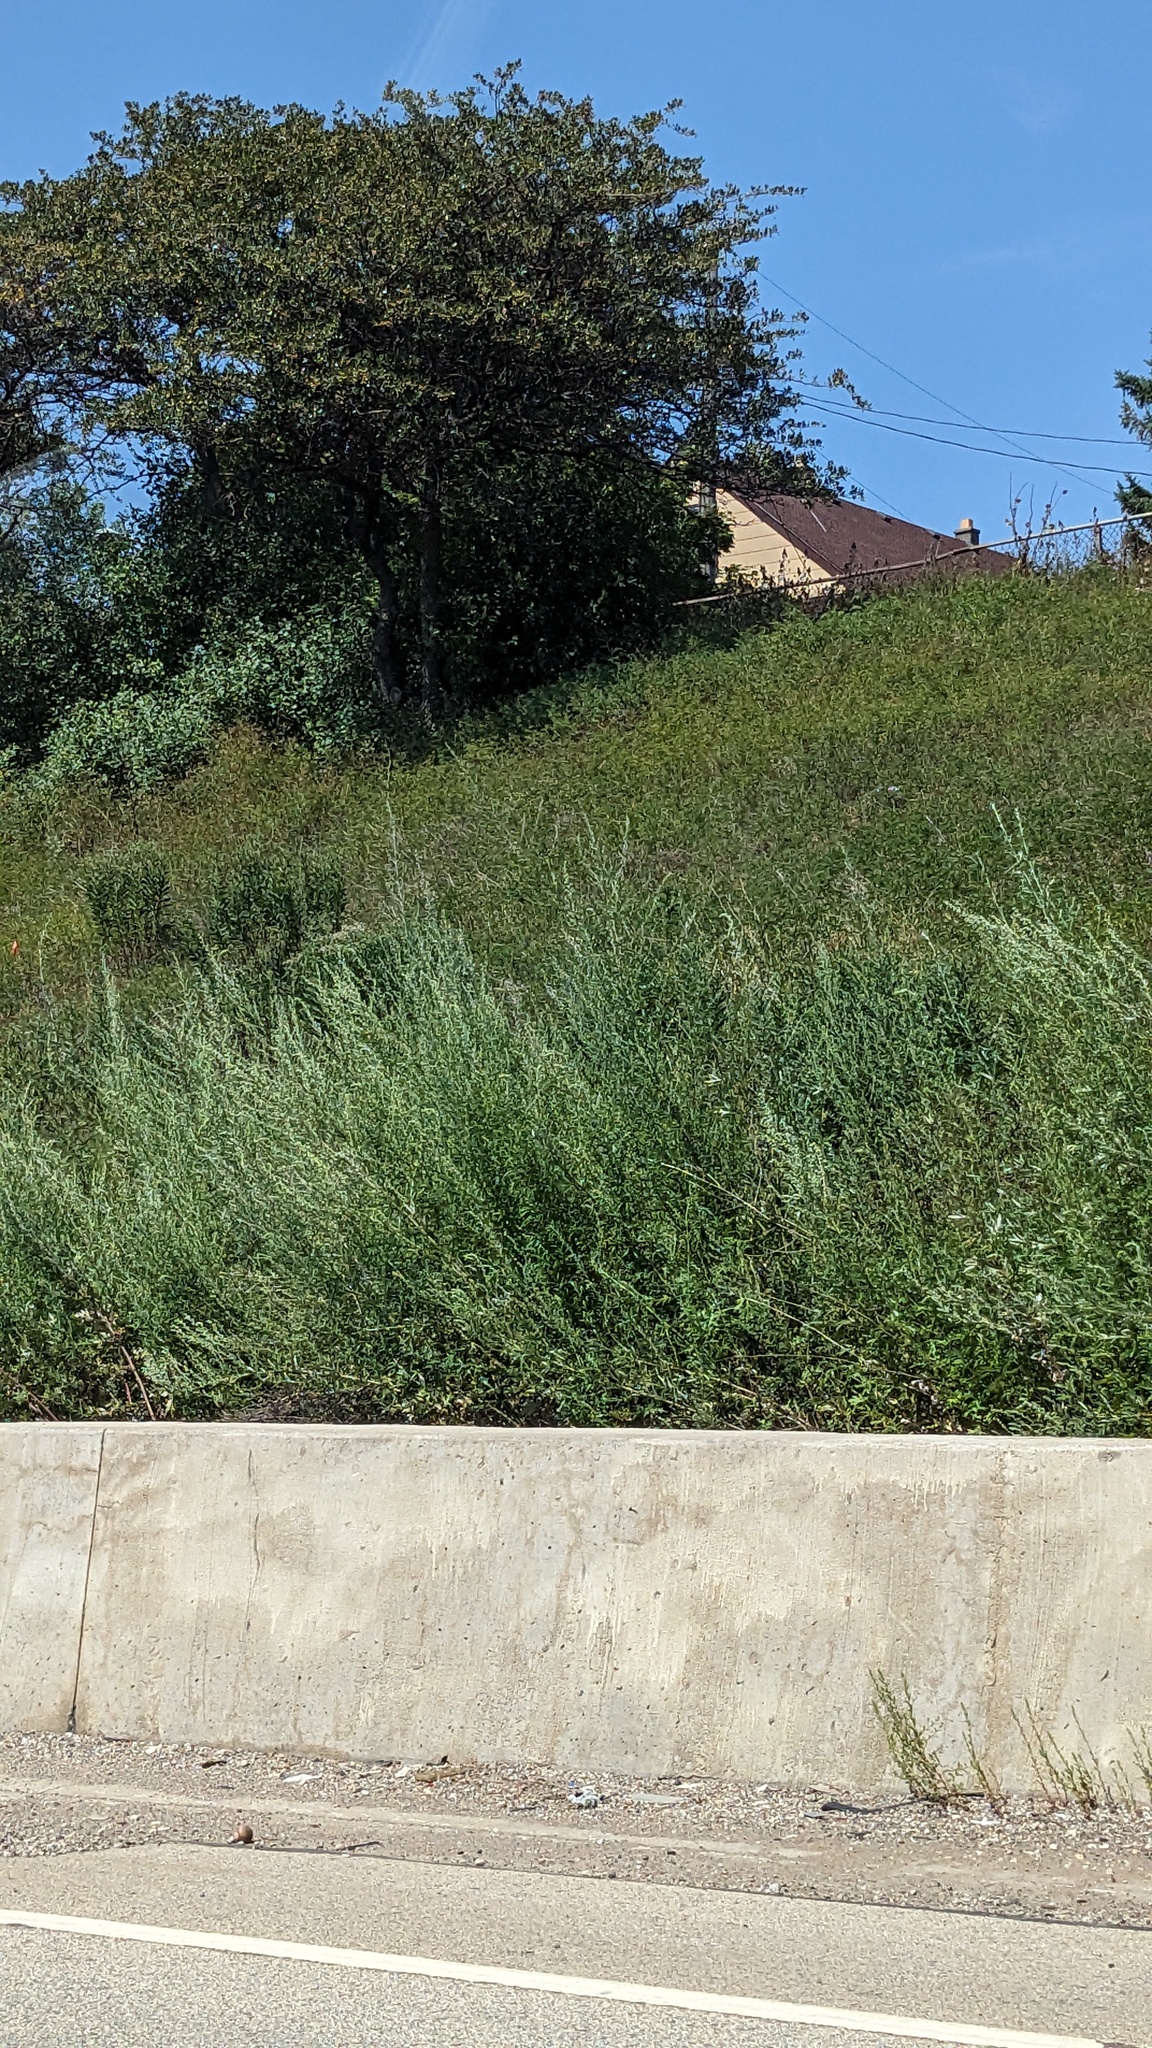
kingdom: Plantae
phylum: Tracheophyta
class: Magnoliopsida
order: Fabales
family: Fabaceae
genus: Melilotus
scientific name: Melilotus albus
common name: White melilot
